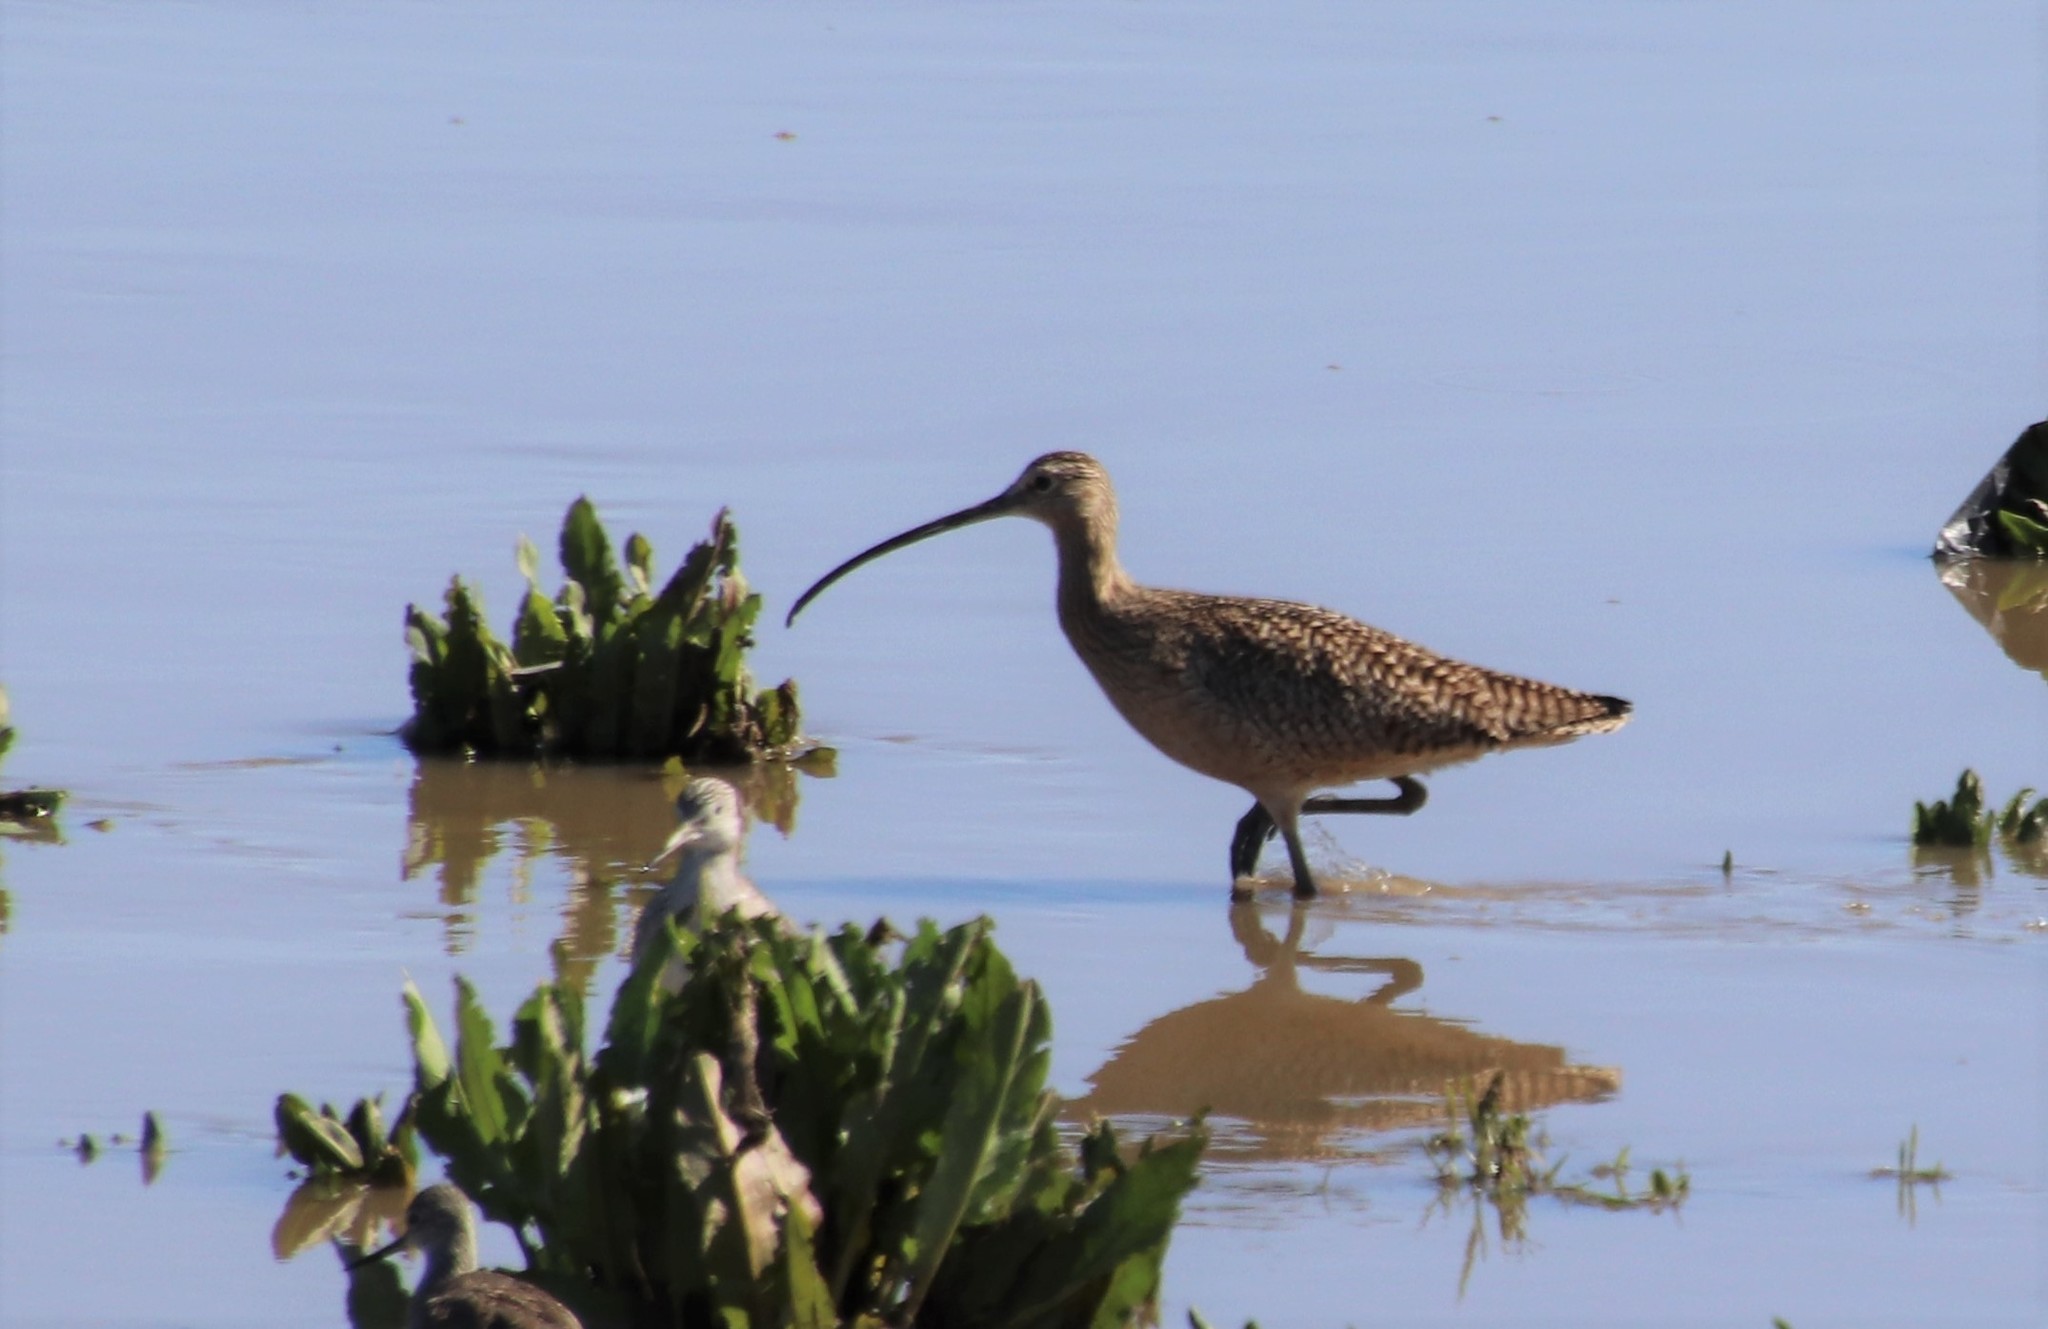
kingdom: Animalia
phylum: Chordata
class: Aves
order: Charadriiformes
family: Scolopacidae
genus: Numenius
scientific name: Numenius americanus
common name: Long-billed curlew
